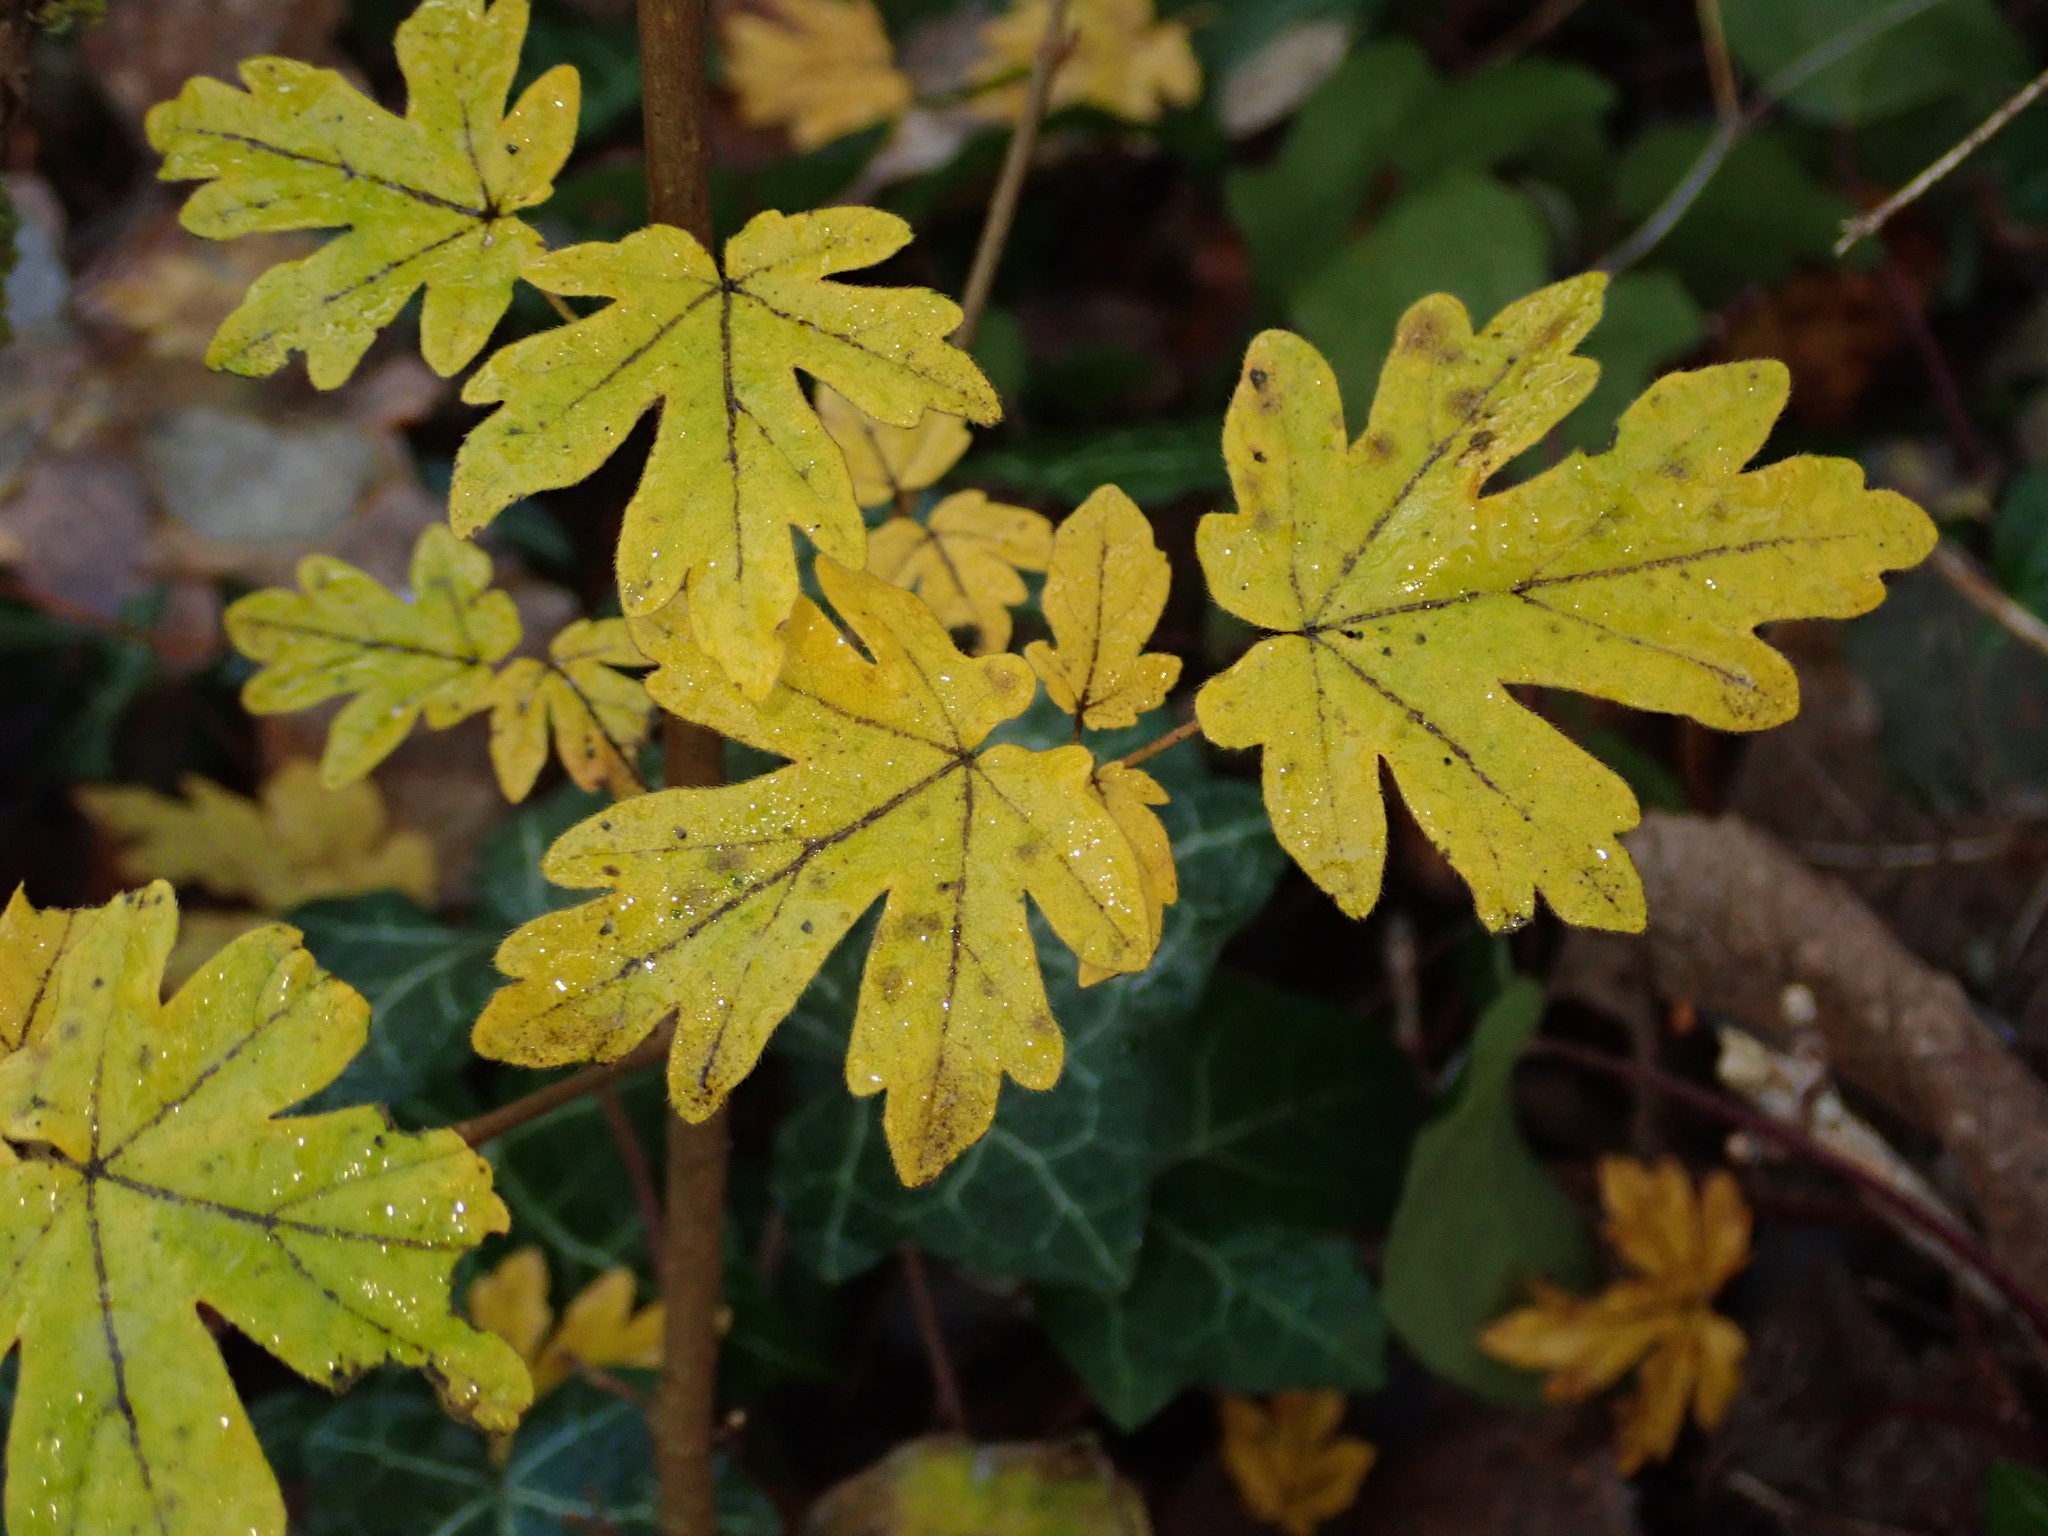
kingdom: Plantae
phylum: Tracheophyta
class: Magnoliopsida
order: Sapindales
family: Sapindaceae
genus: Acer
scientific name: Acer campestre
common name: Field maple
